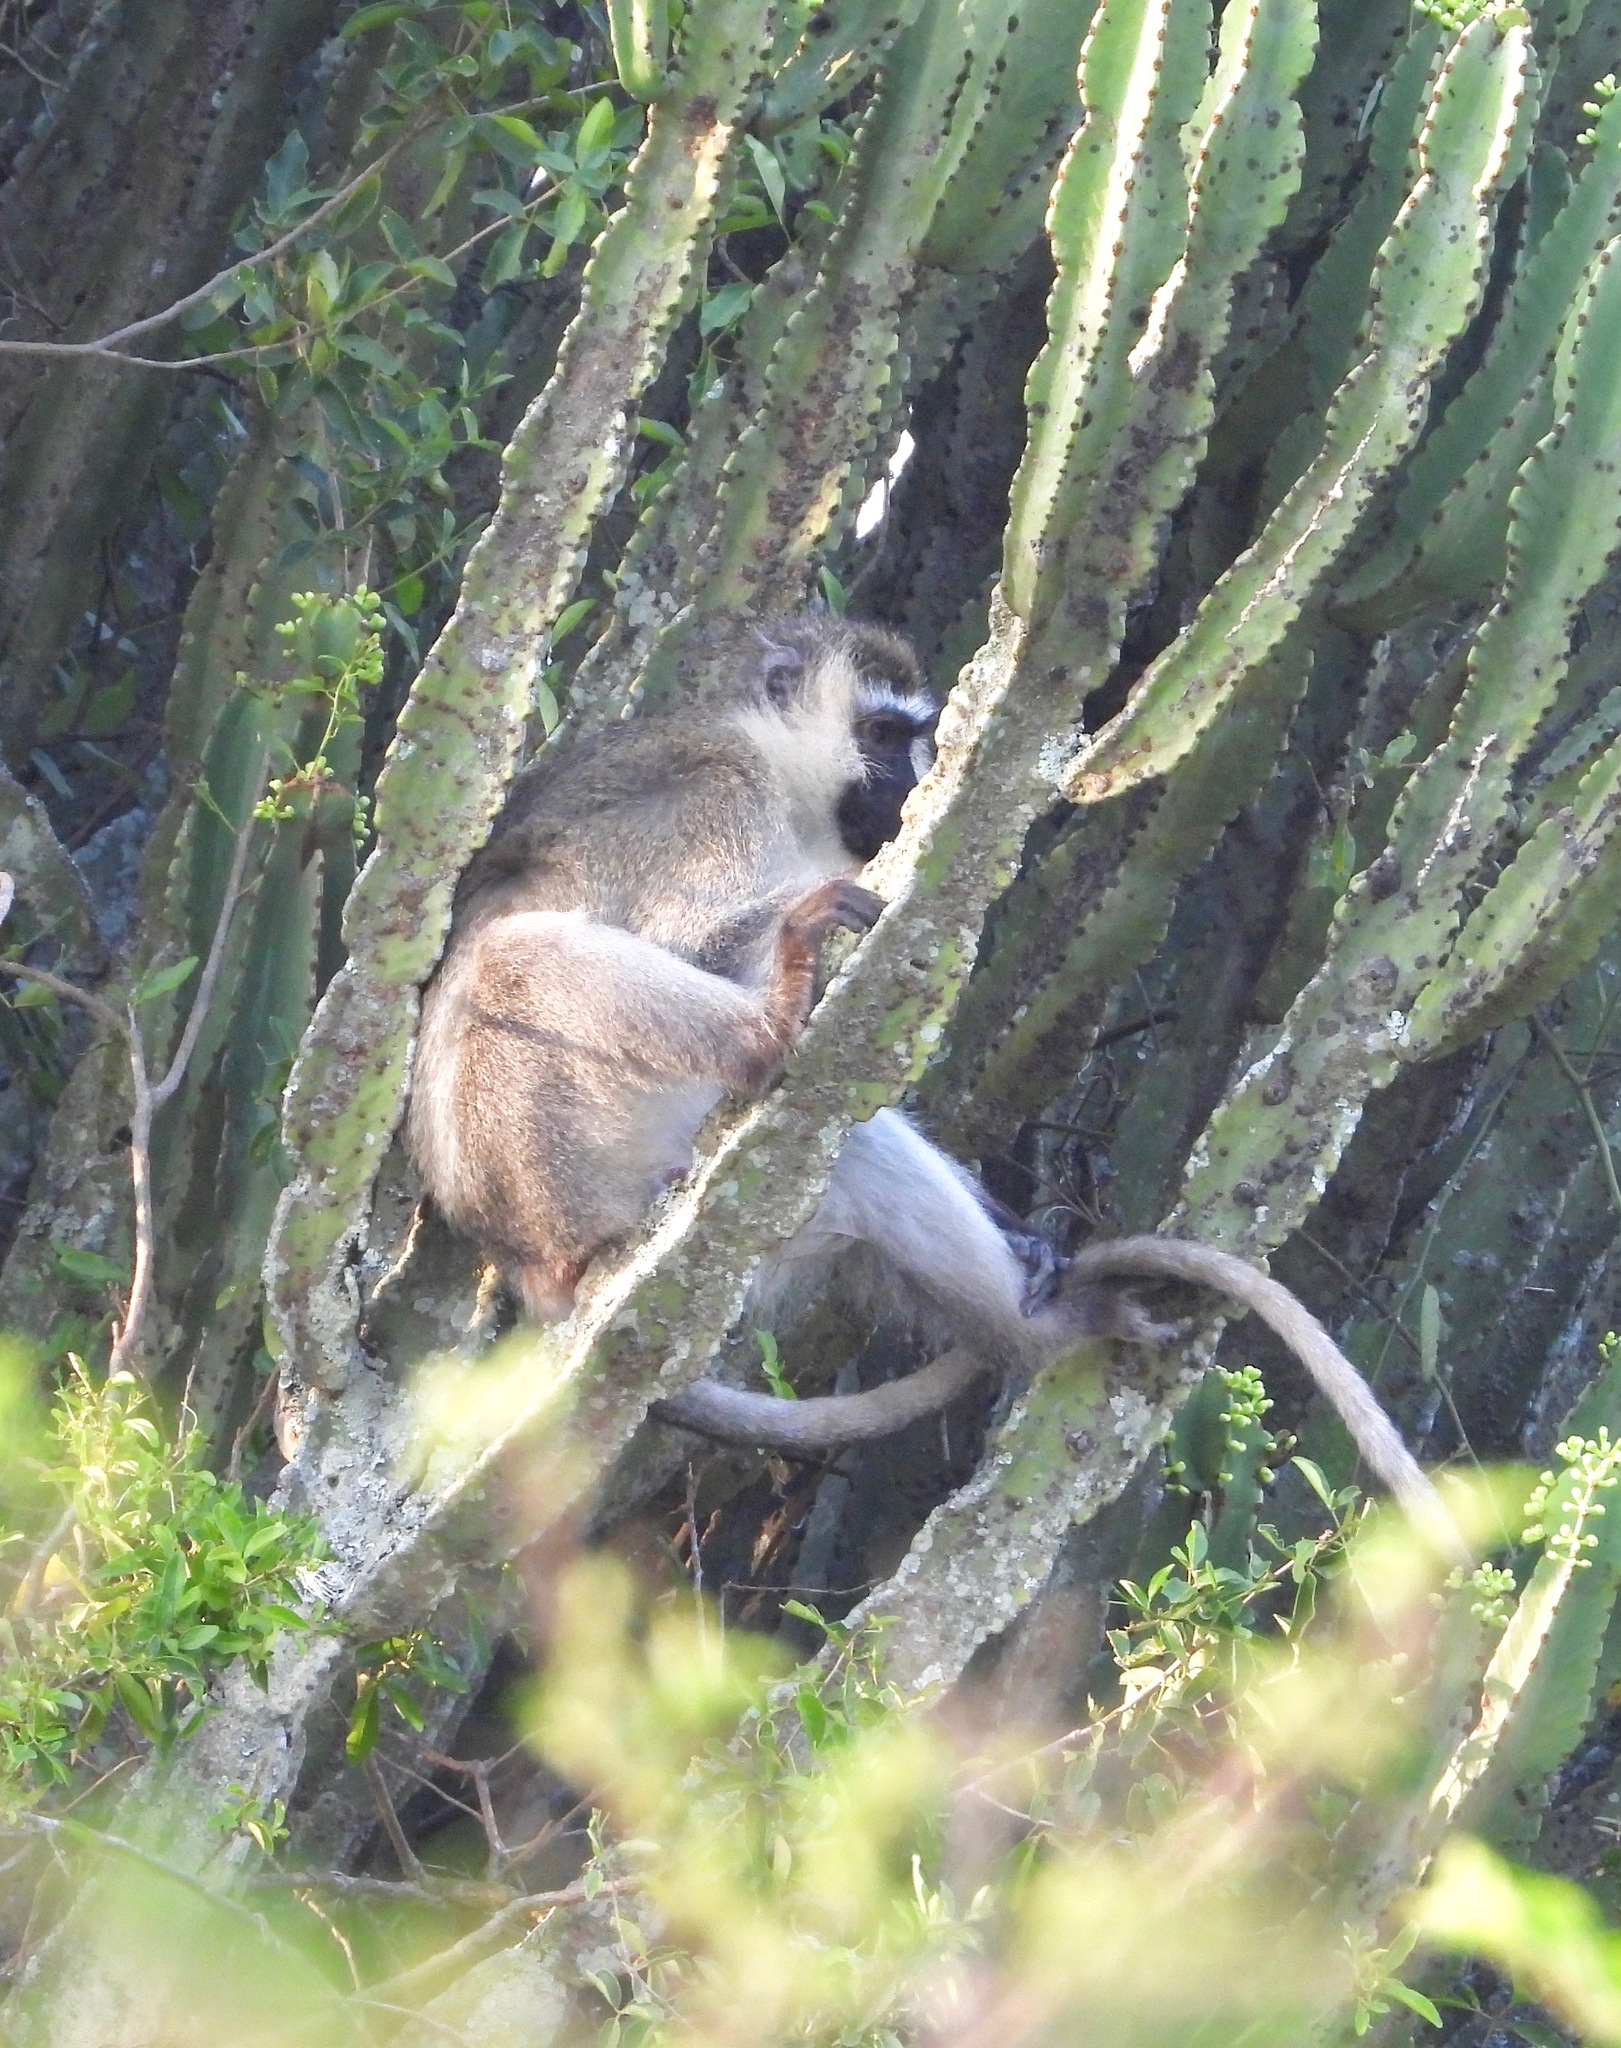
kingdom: Animalia
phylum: Chordata
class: Mammalia
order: Primates
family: Cercopithecidae
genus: Chlorocebus
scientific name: Chlorocebus tantalus
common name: Tantalus monkey
